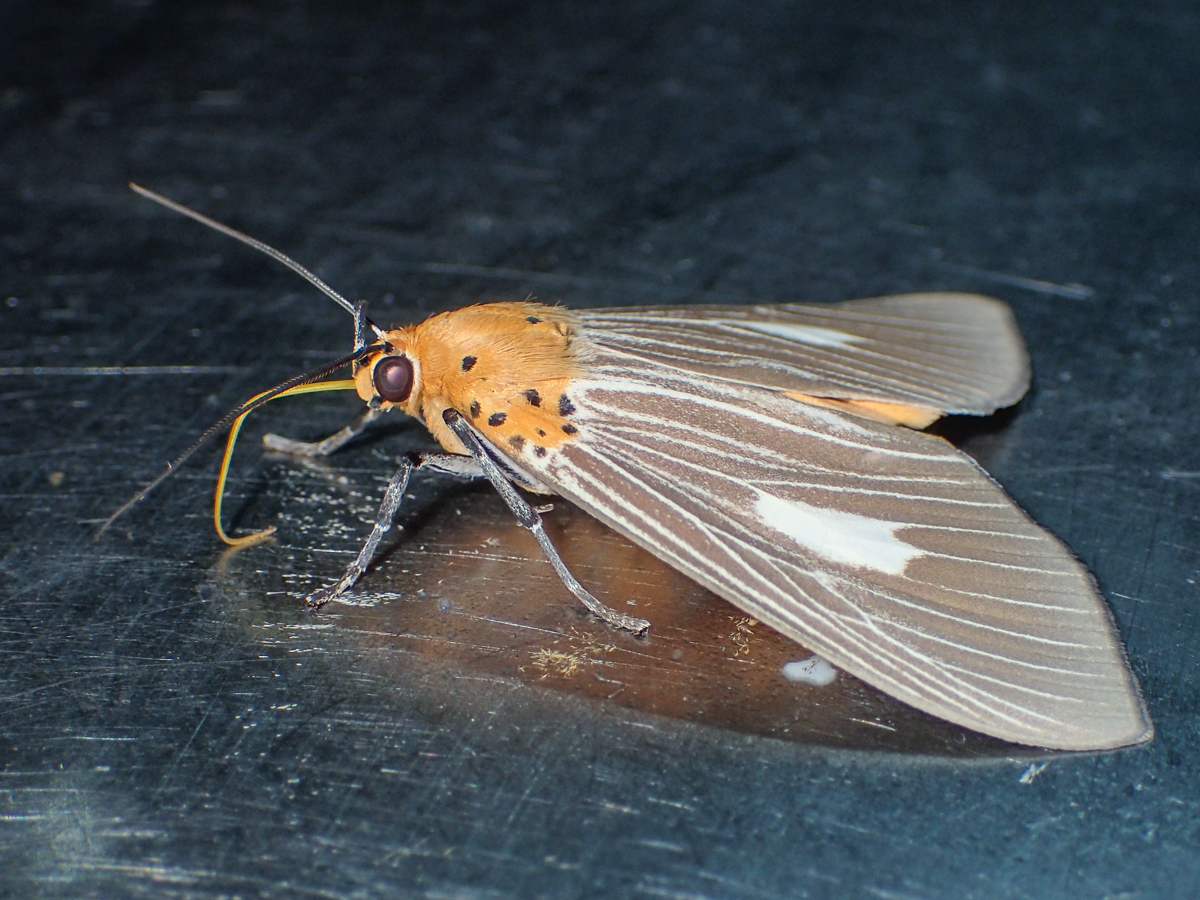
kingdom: Animalia
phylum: Arthropoda
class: Insecta
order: Lepidoptera
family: Erebidae
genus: Asota
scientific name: Asota plaginota
